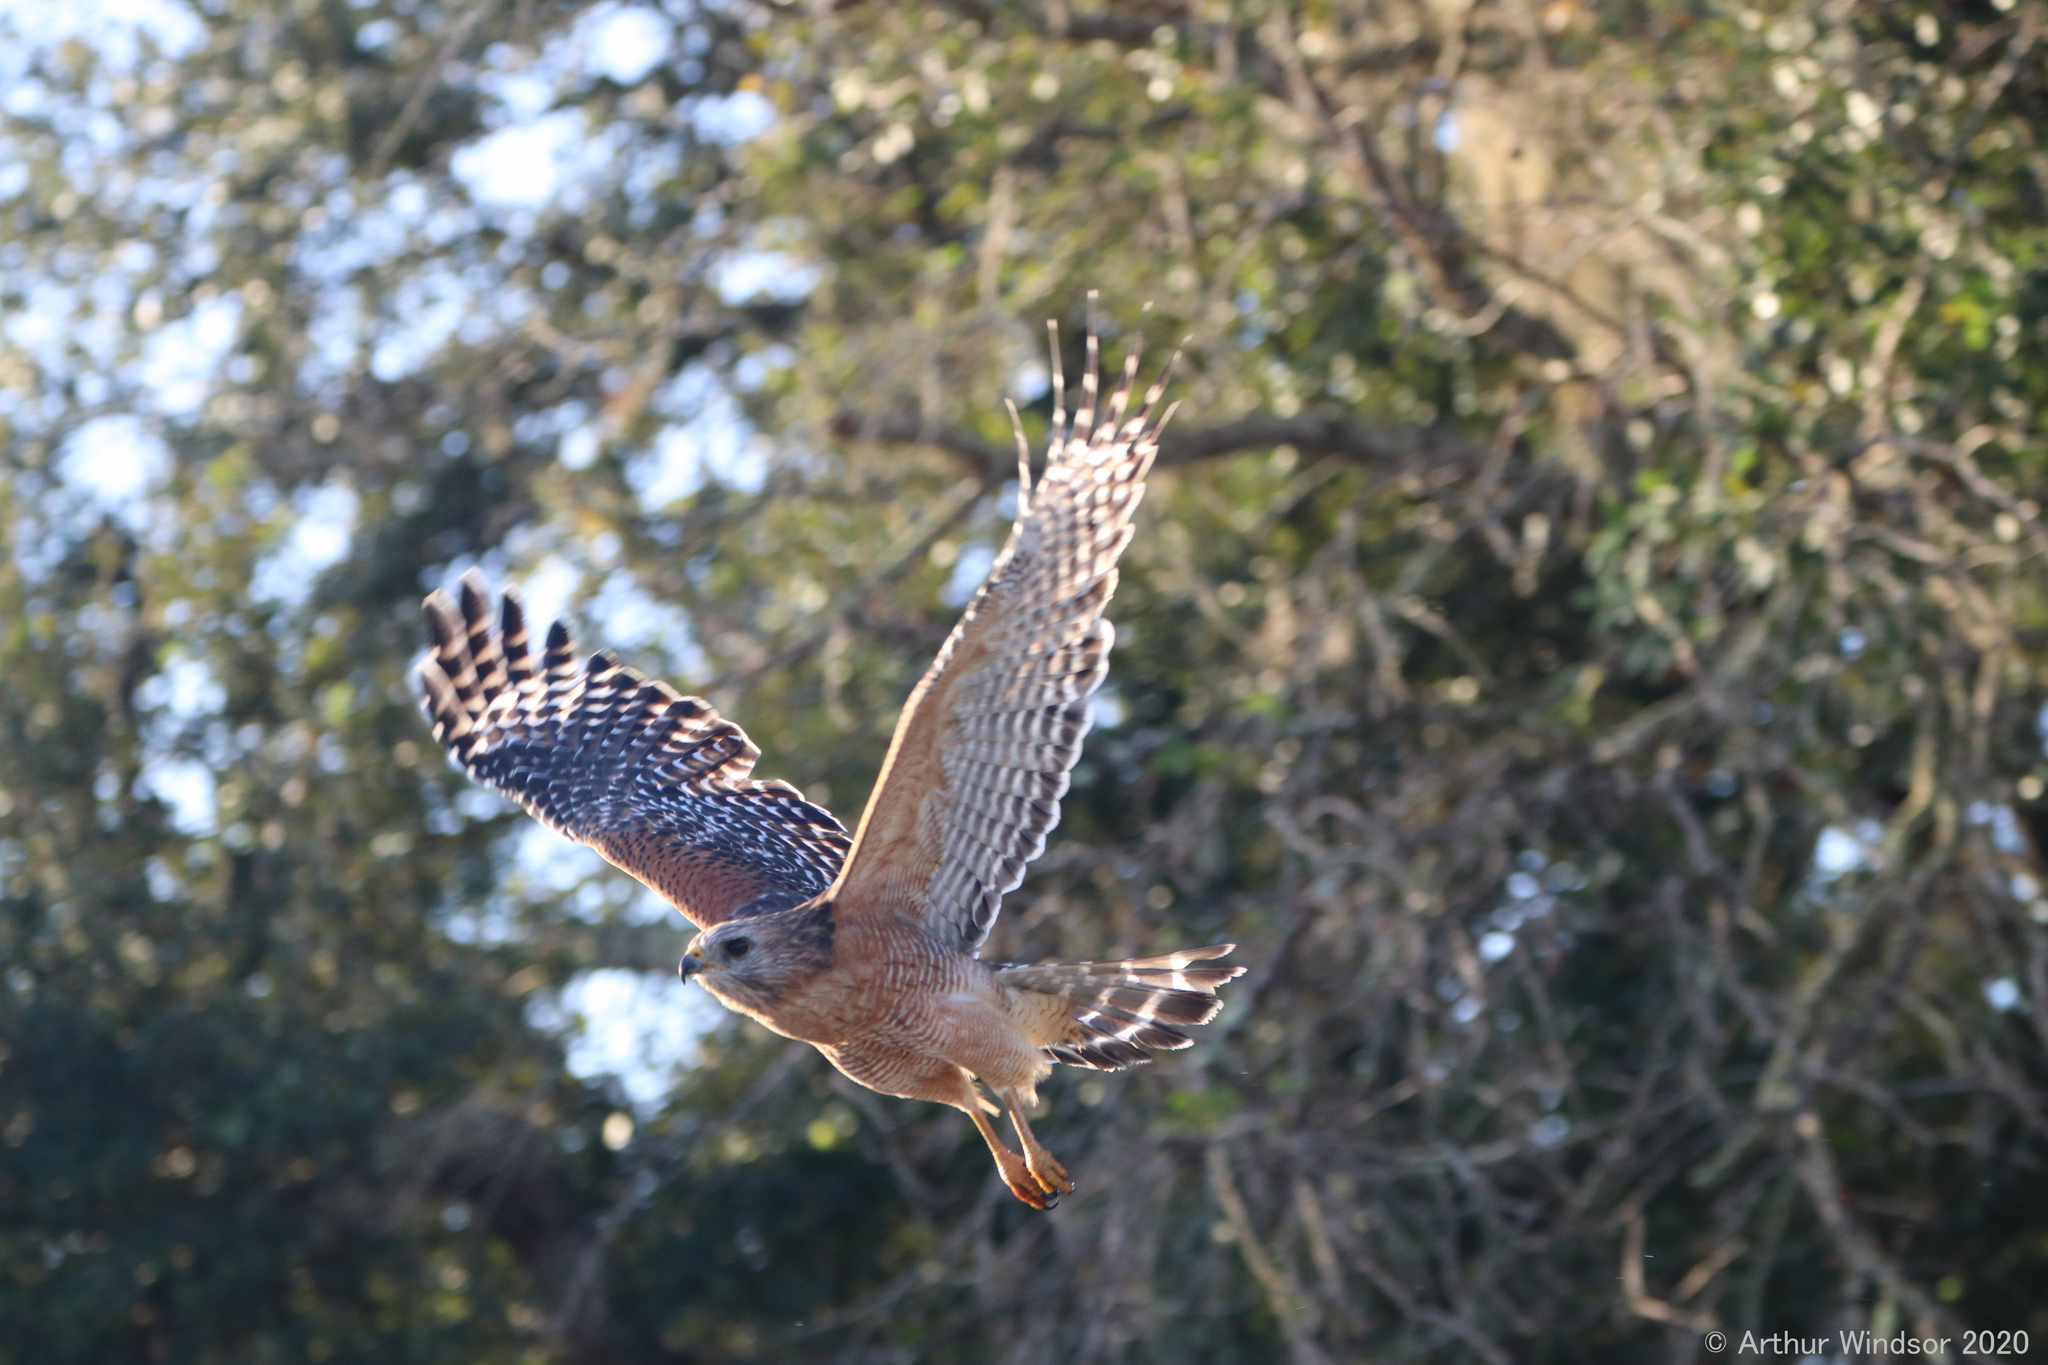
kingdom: Animalia
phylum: Chordata
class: Aves
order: Accipitriformes
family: Accipitridae
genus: Buteo
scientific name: Buteo lineatus
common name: Red-shouldered hawk
